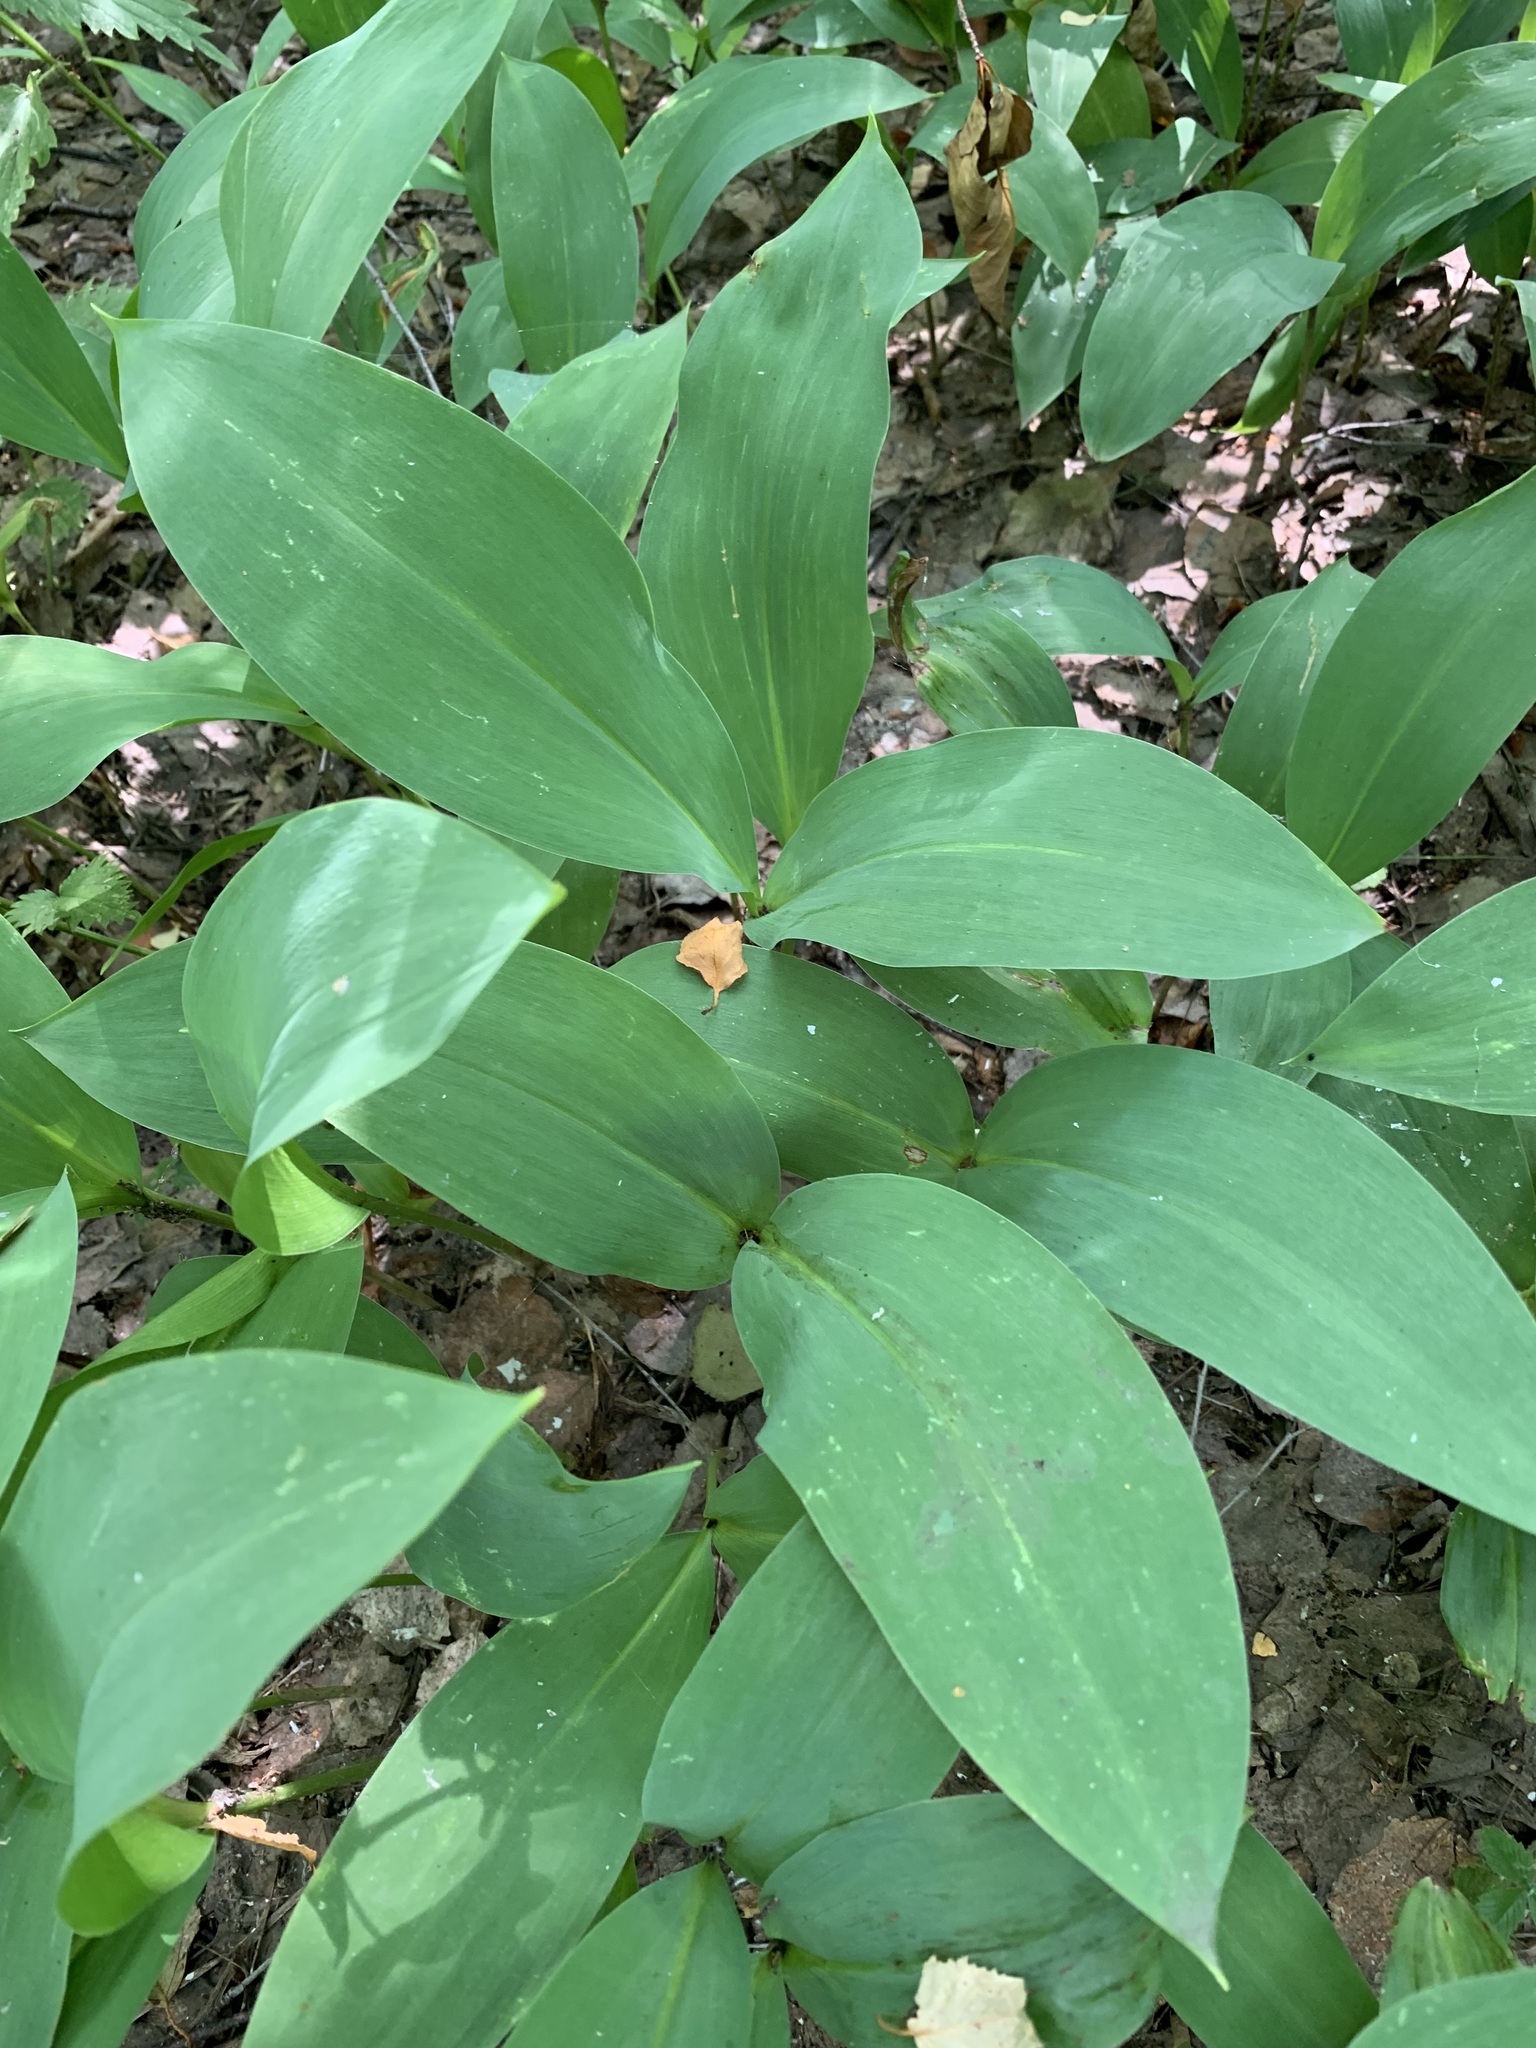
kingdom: Plantae
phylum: Tracheophyta
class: Liliopsida
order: Asparagales
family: Asparagaceae
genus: Convallaria
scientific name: Convallaria majalis
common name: Lily-of-the-valley
